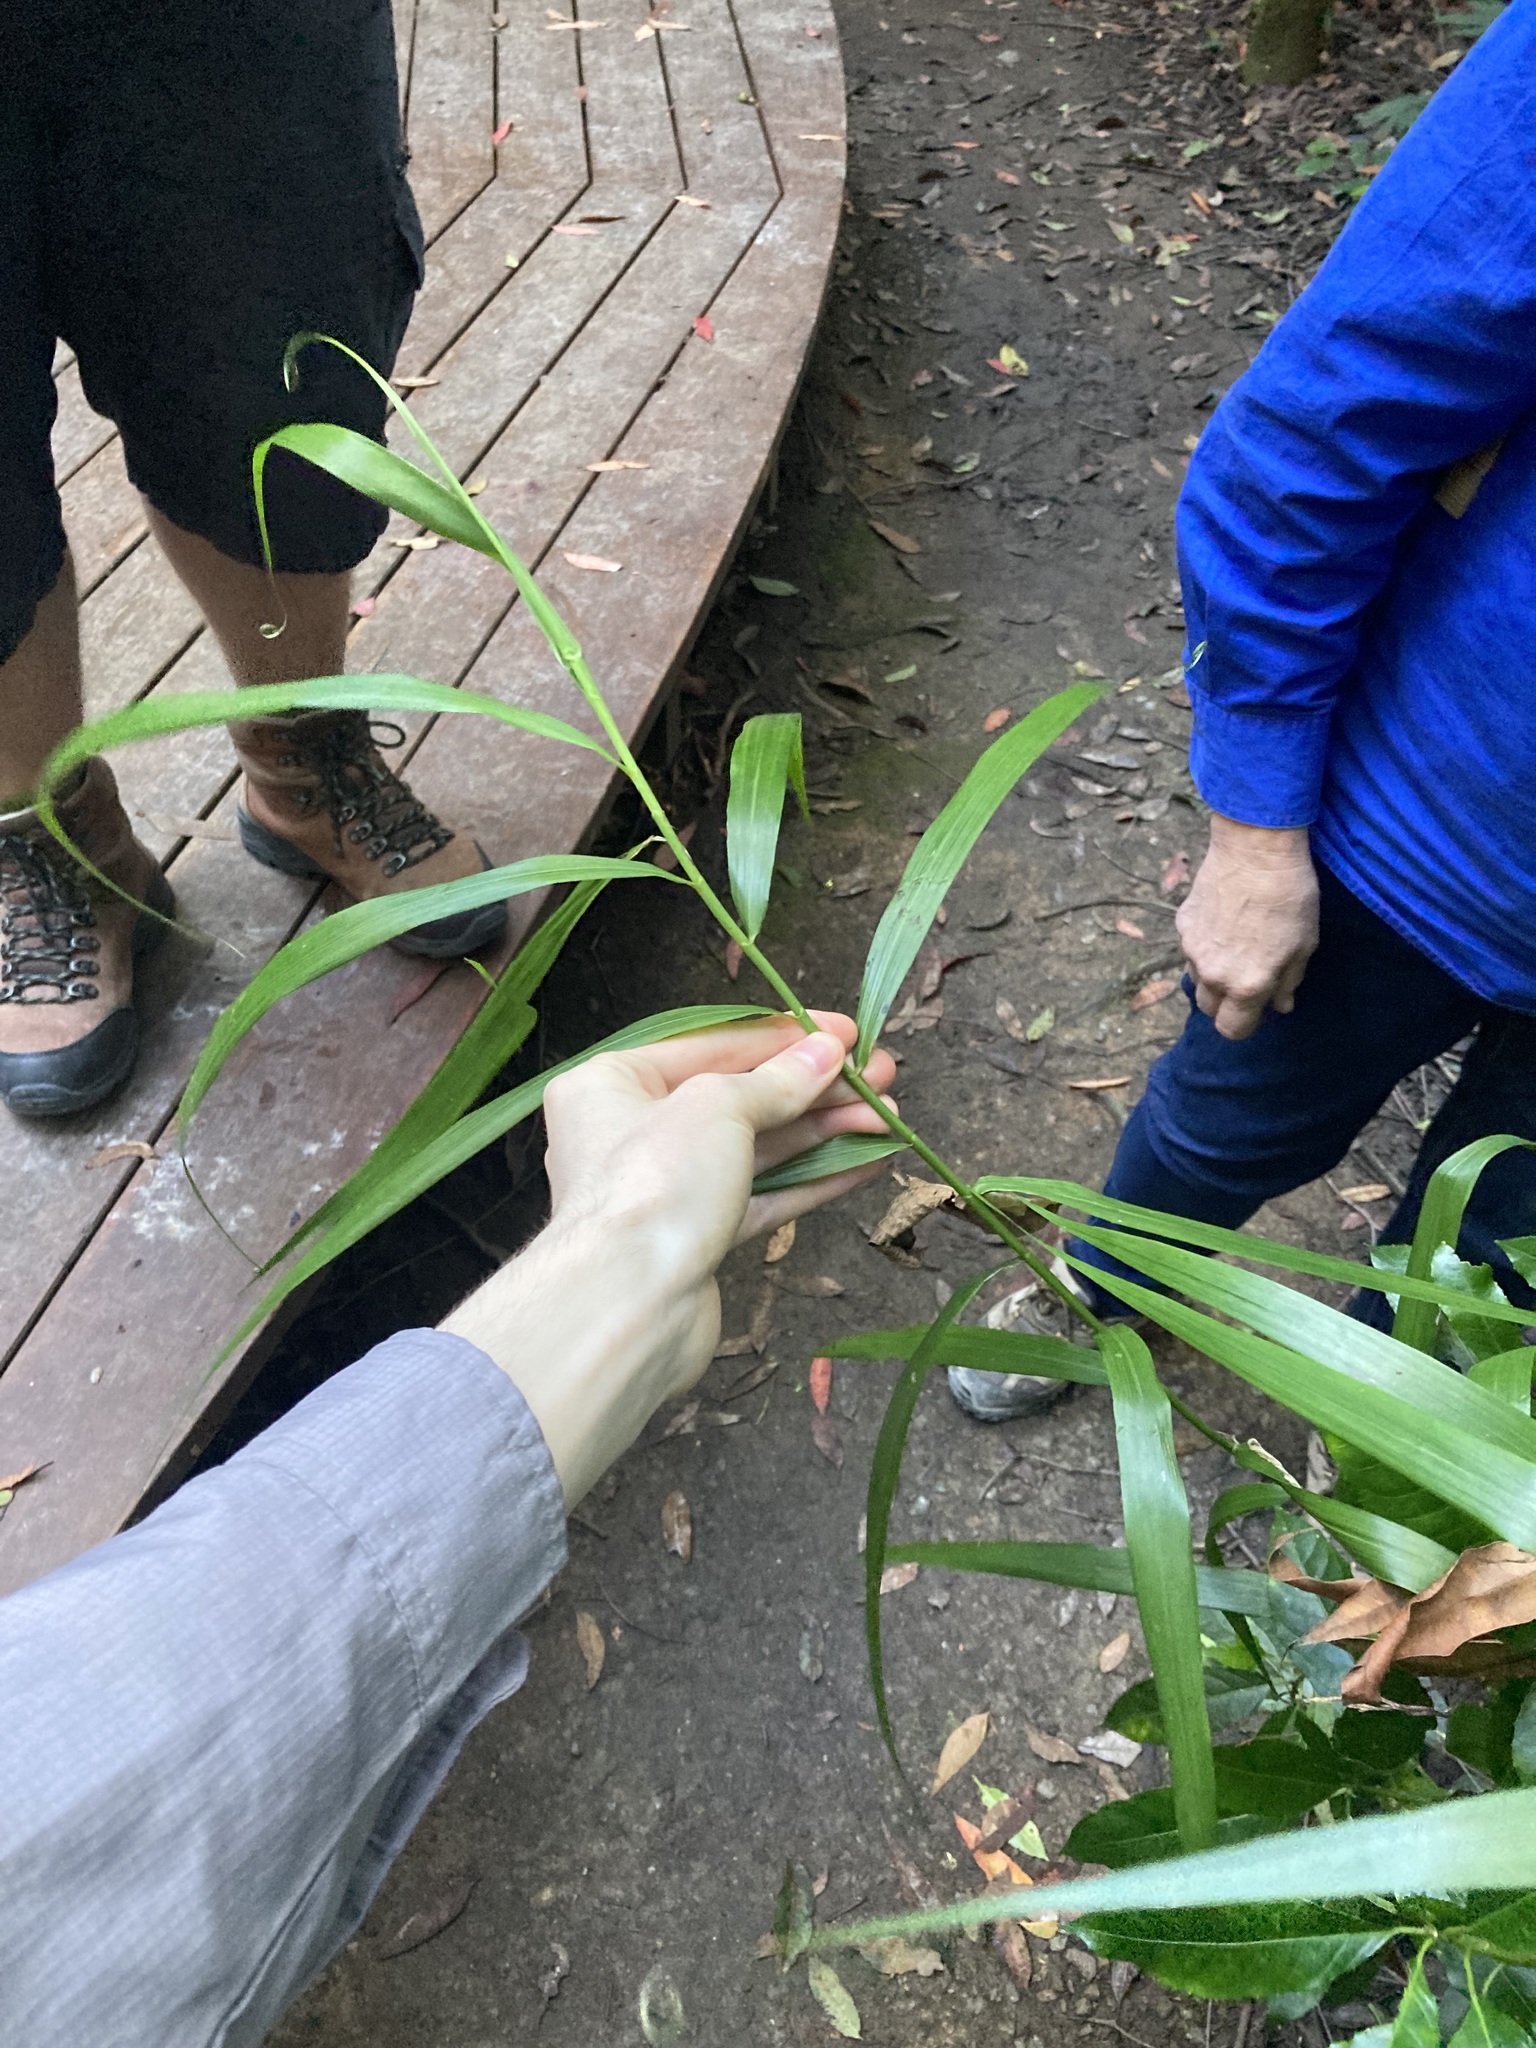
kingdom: Plantae
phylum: Tracheophyta
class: Liliopsida
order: Poales
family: Flagellariaceae
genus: Flagellaria
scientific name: Flagellaria indica
